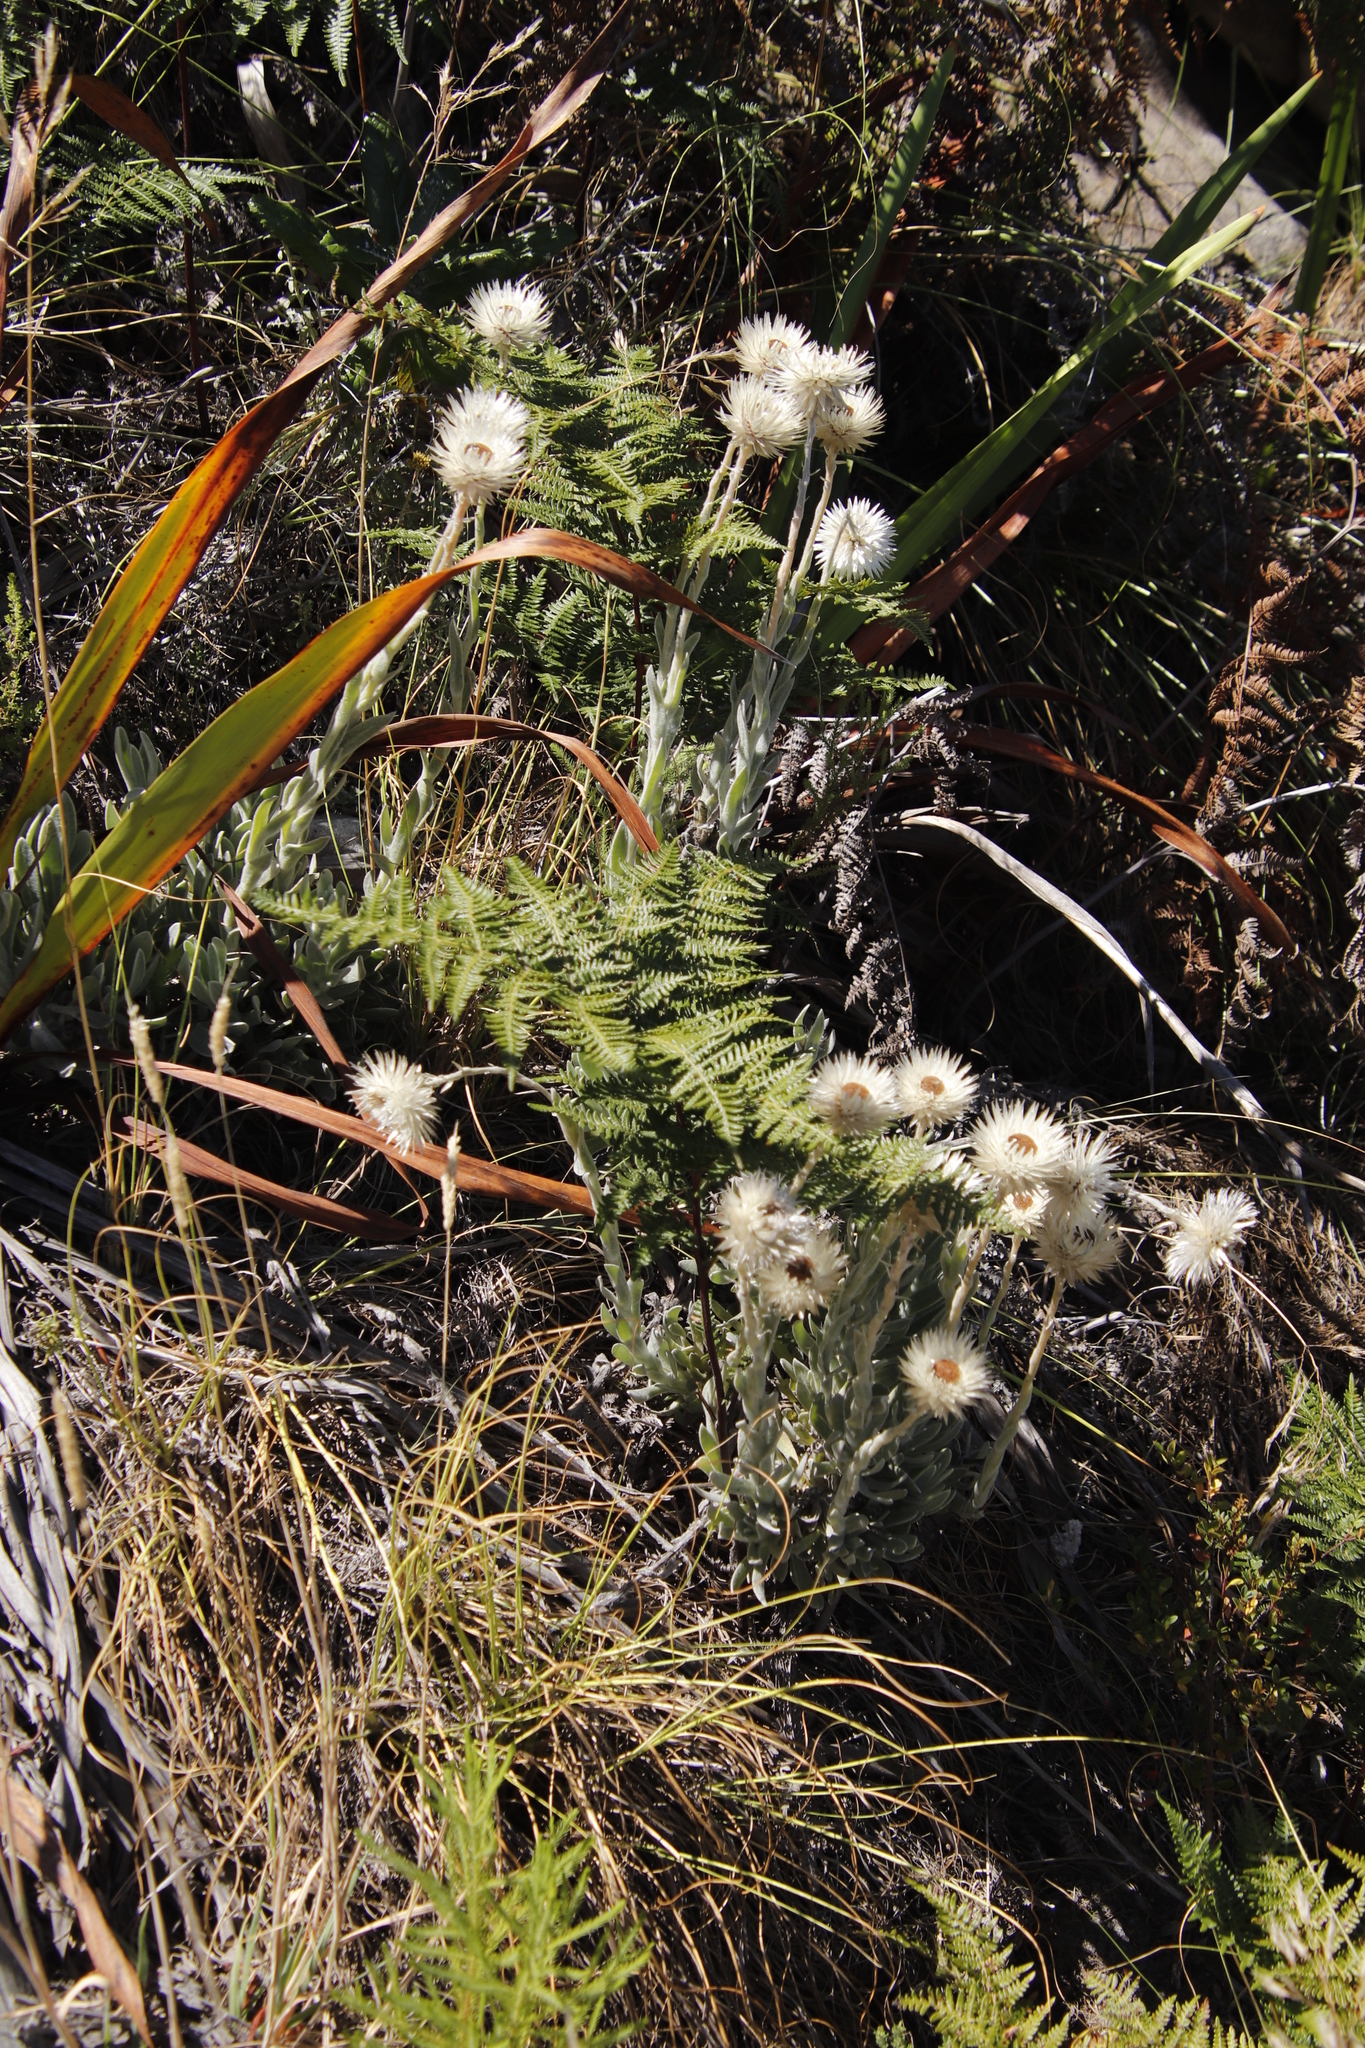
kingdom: Plantae
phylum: Tracheophyta
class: Magnoliopsida
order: Asterales
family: Asteraceae
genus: Syncarpha
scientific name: Syncarpha vestita
